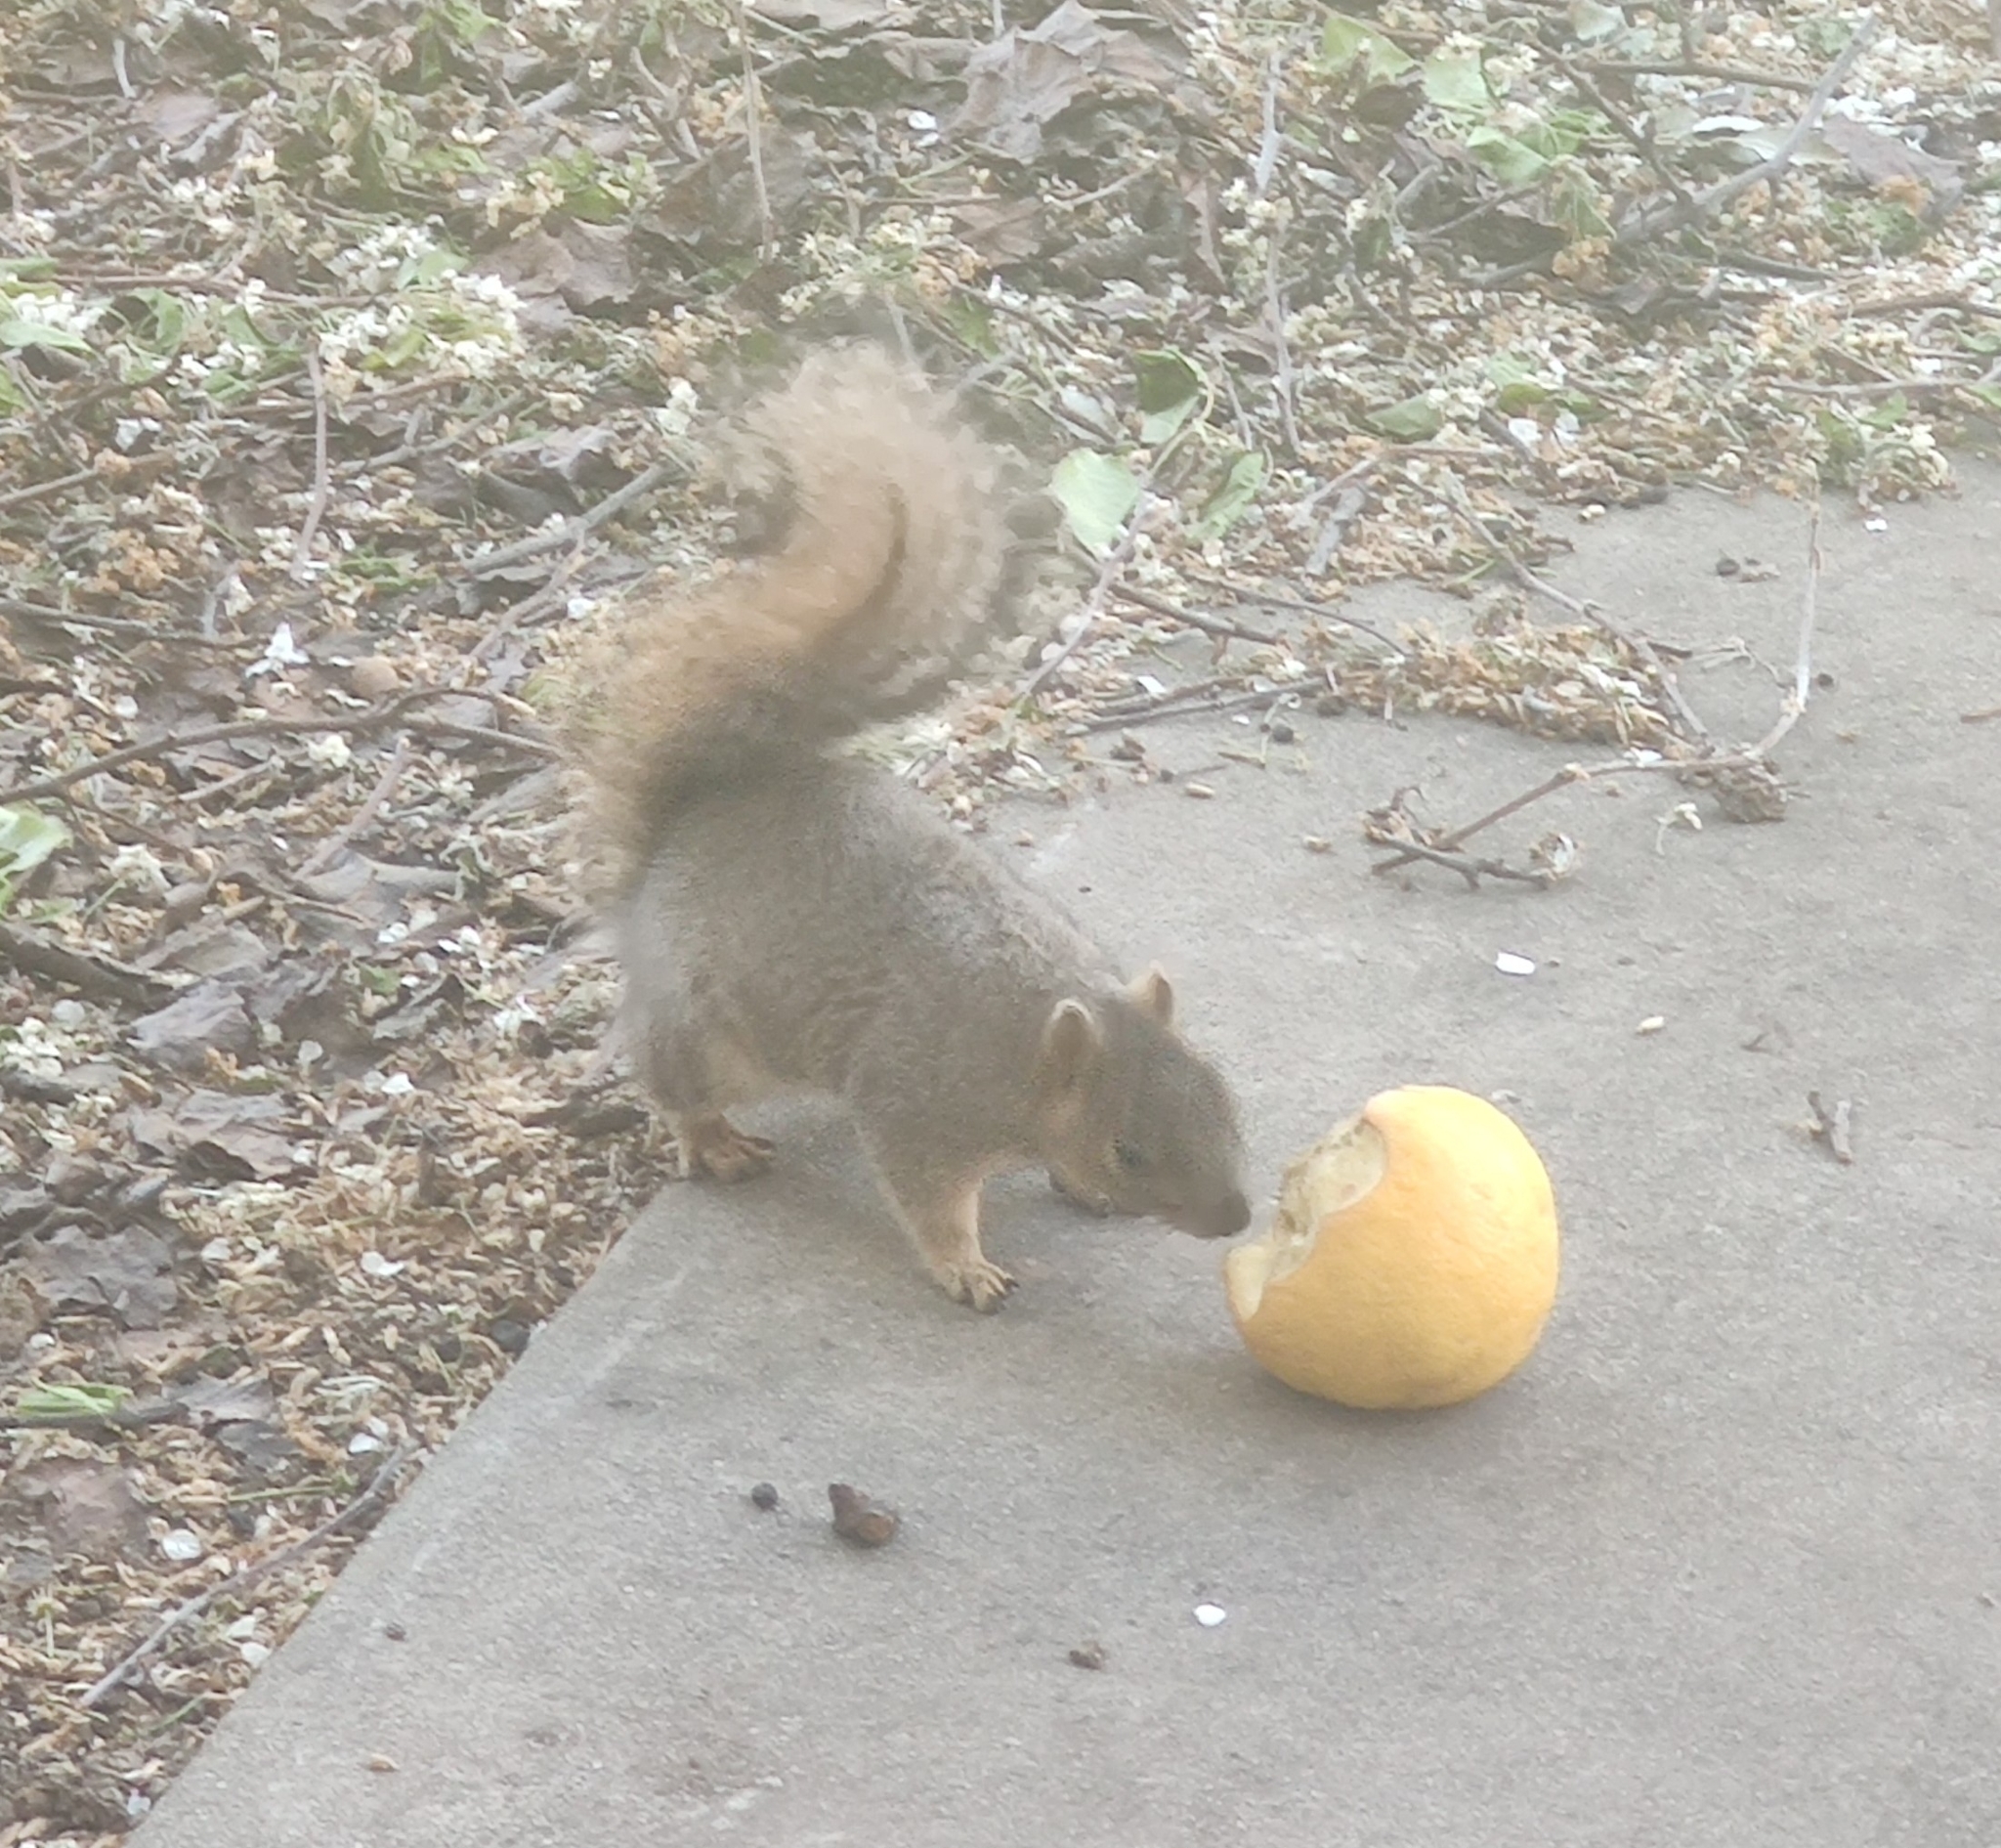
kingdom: Animalia
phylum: Chordata
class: Mammalia
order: Rodentia
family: Sciuridae
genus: Sciurus
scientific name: Sciurus niger
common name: Fox squirrel
